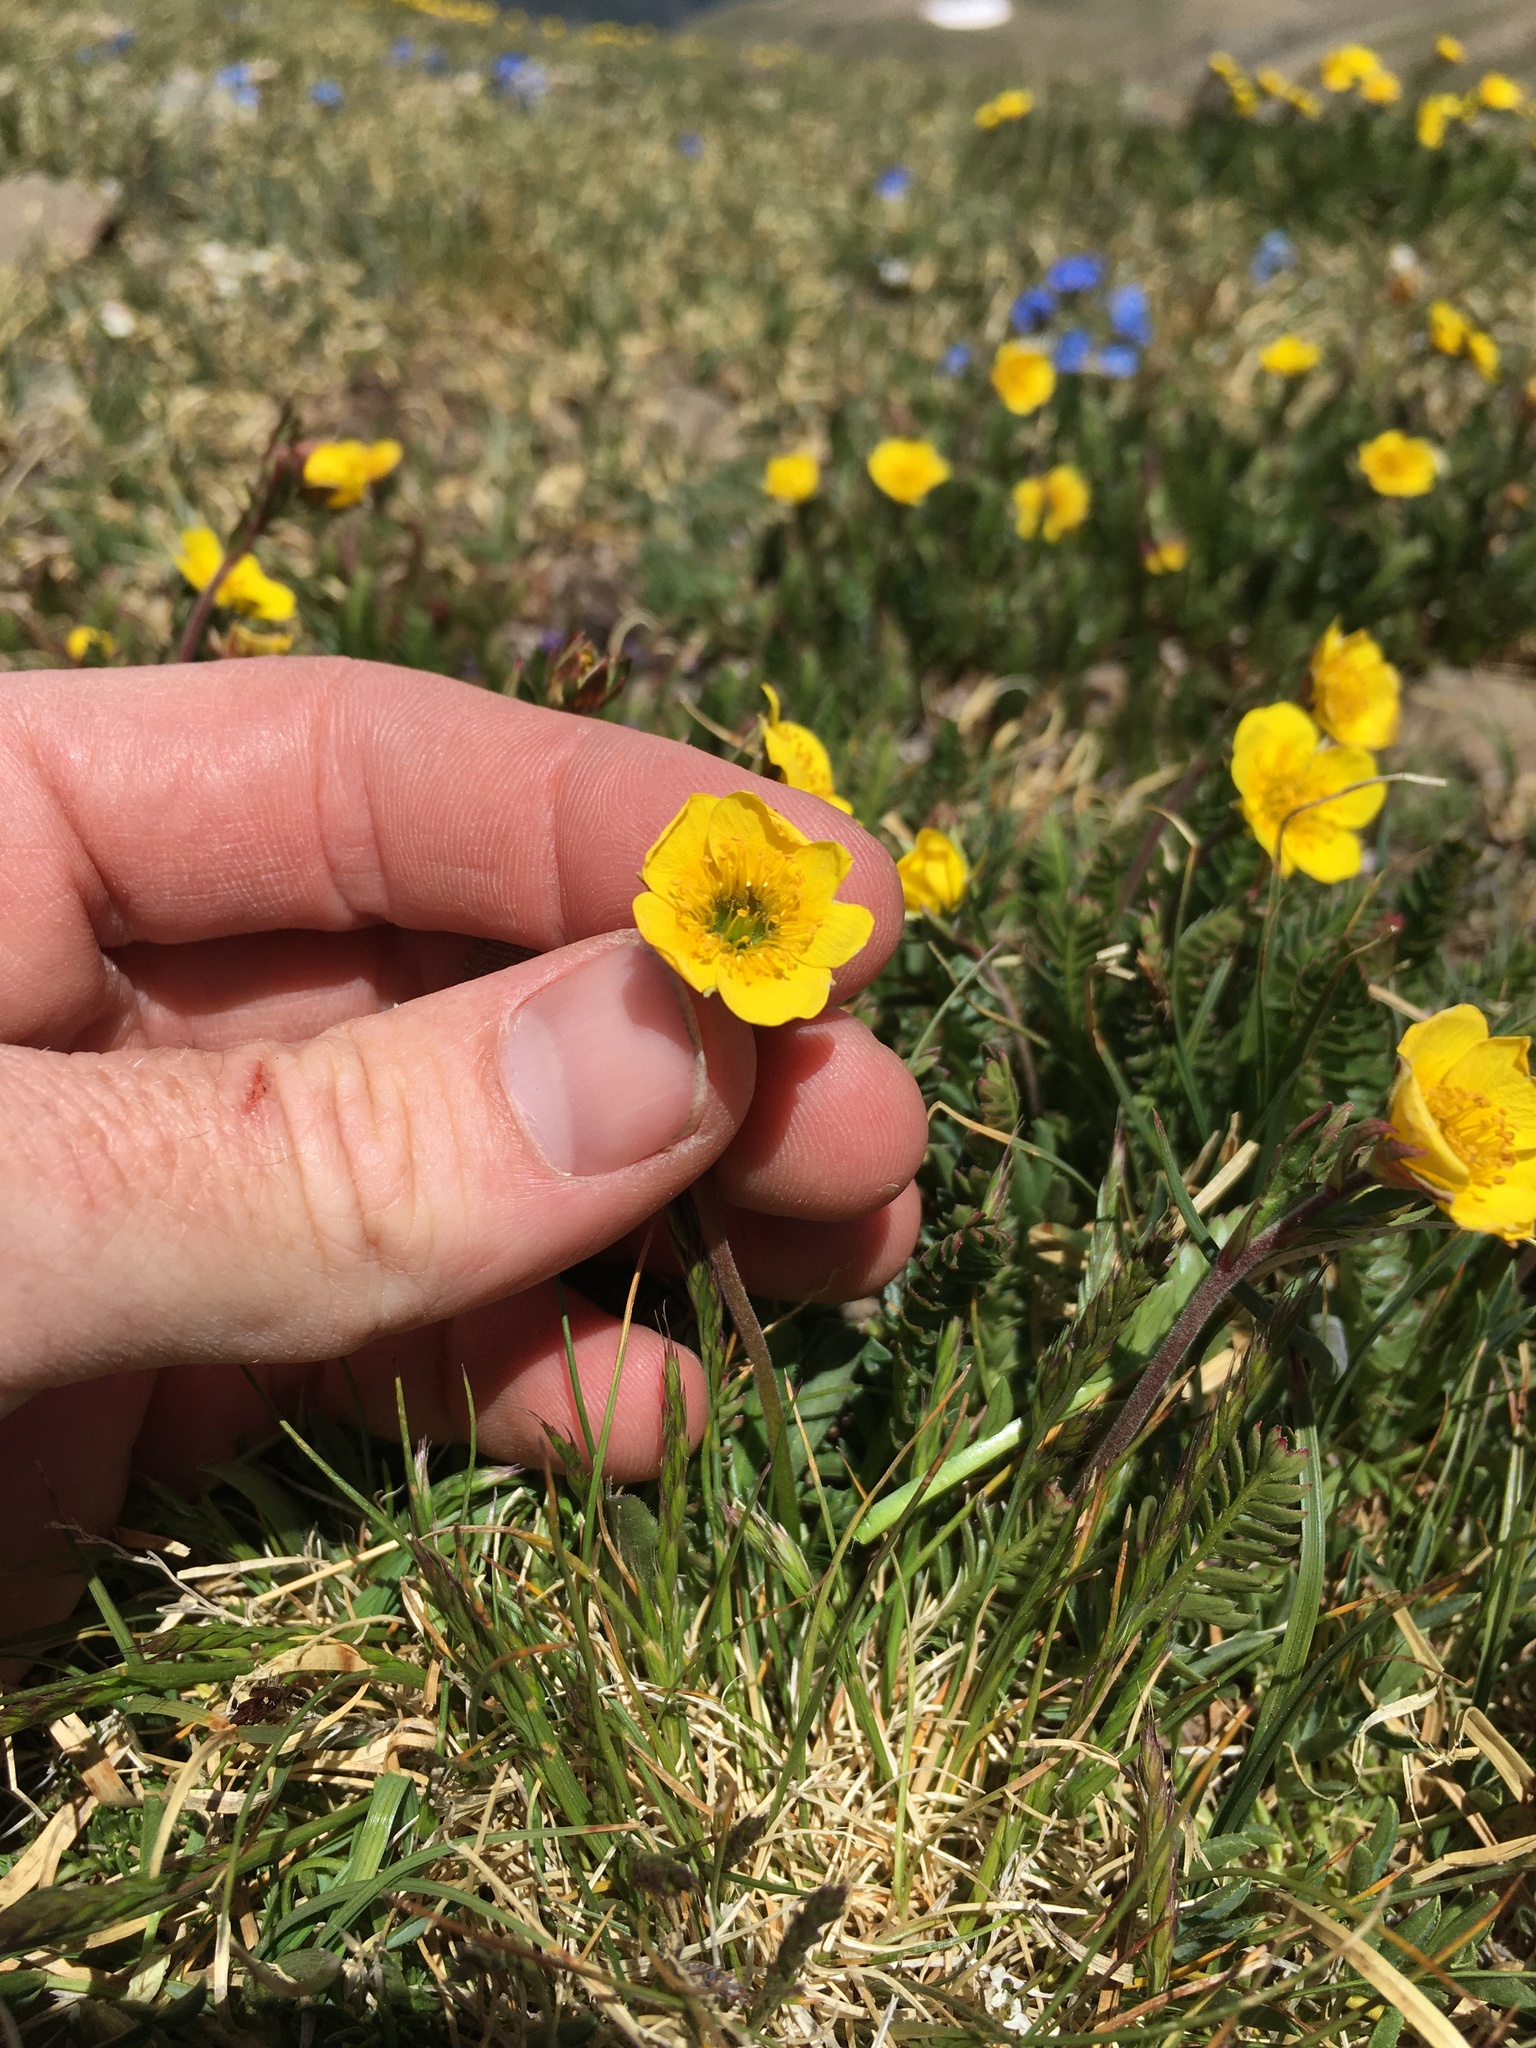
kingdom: Plantae
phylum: Tracheophyta
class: Magnoliopsida
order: Rosales
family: Rosaceae
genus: Geum
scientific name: Geum rossii
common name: Alpine avens
